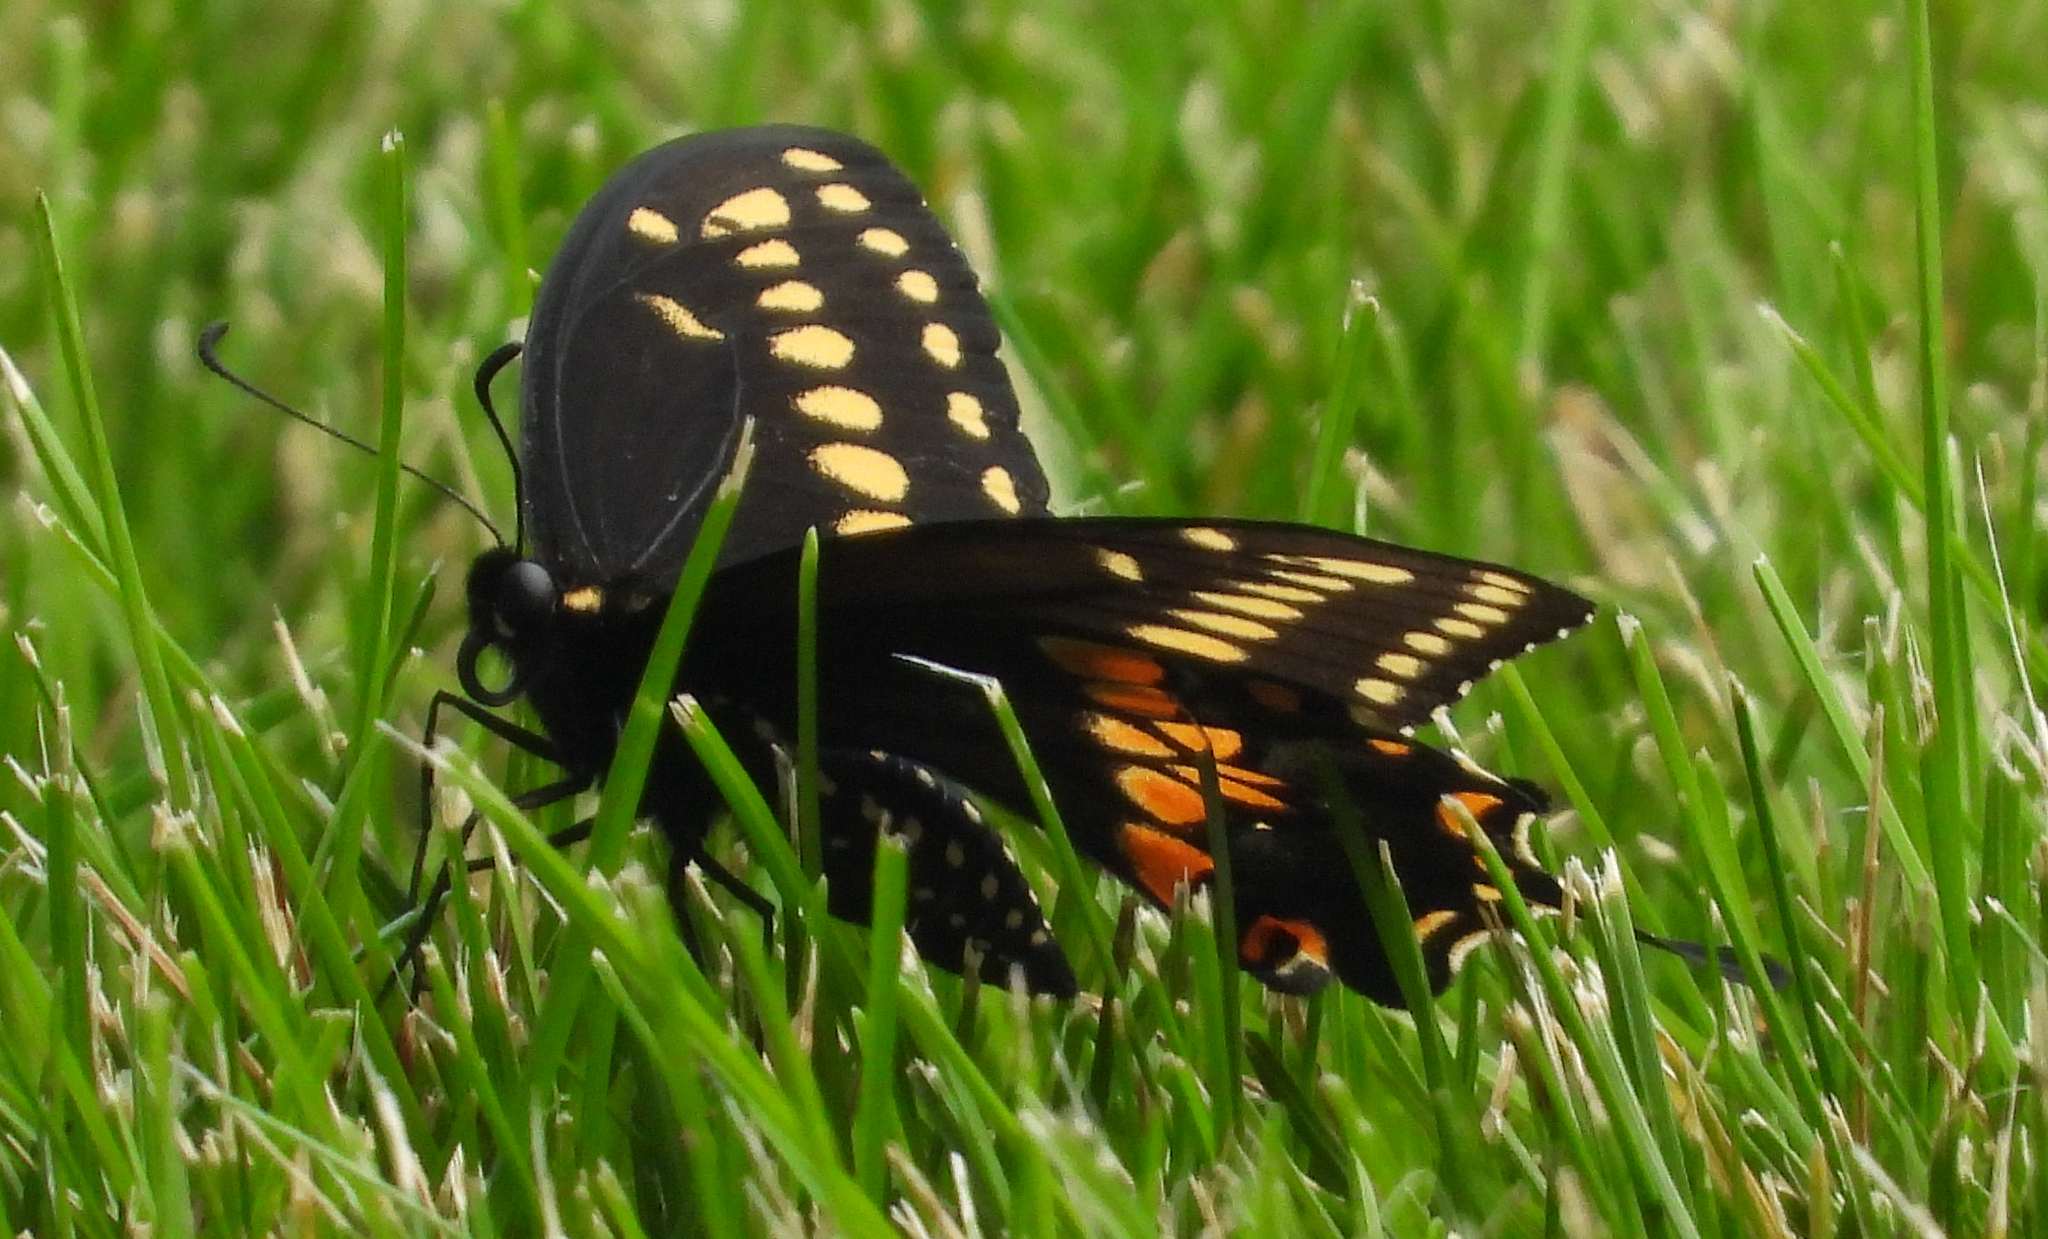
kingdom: Animalia
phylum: Arthropoda
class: Insecta
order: Lepidoptera
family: Papilionidae
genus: Papilio
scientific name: Papilio polyxenes
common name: Black swallowtail
